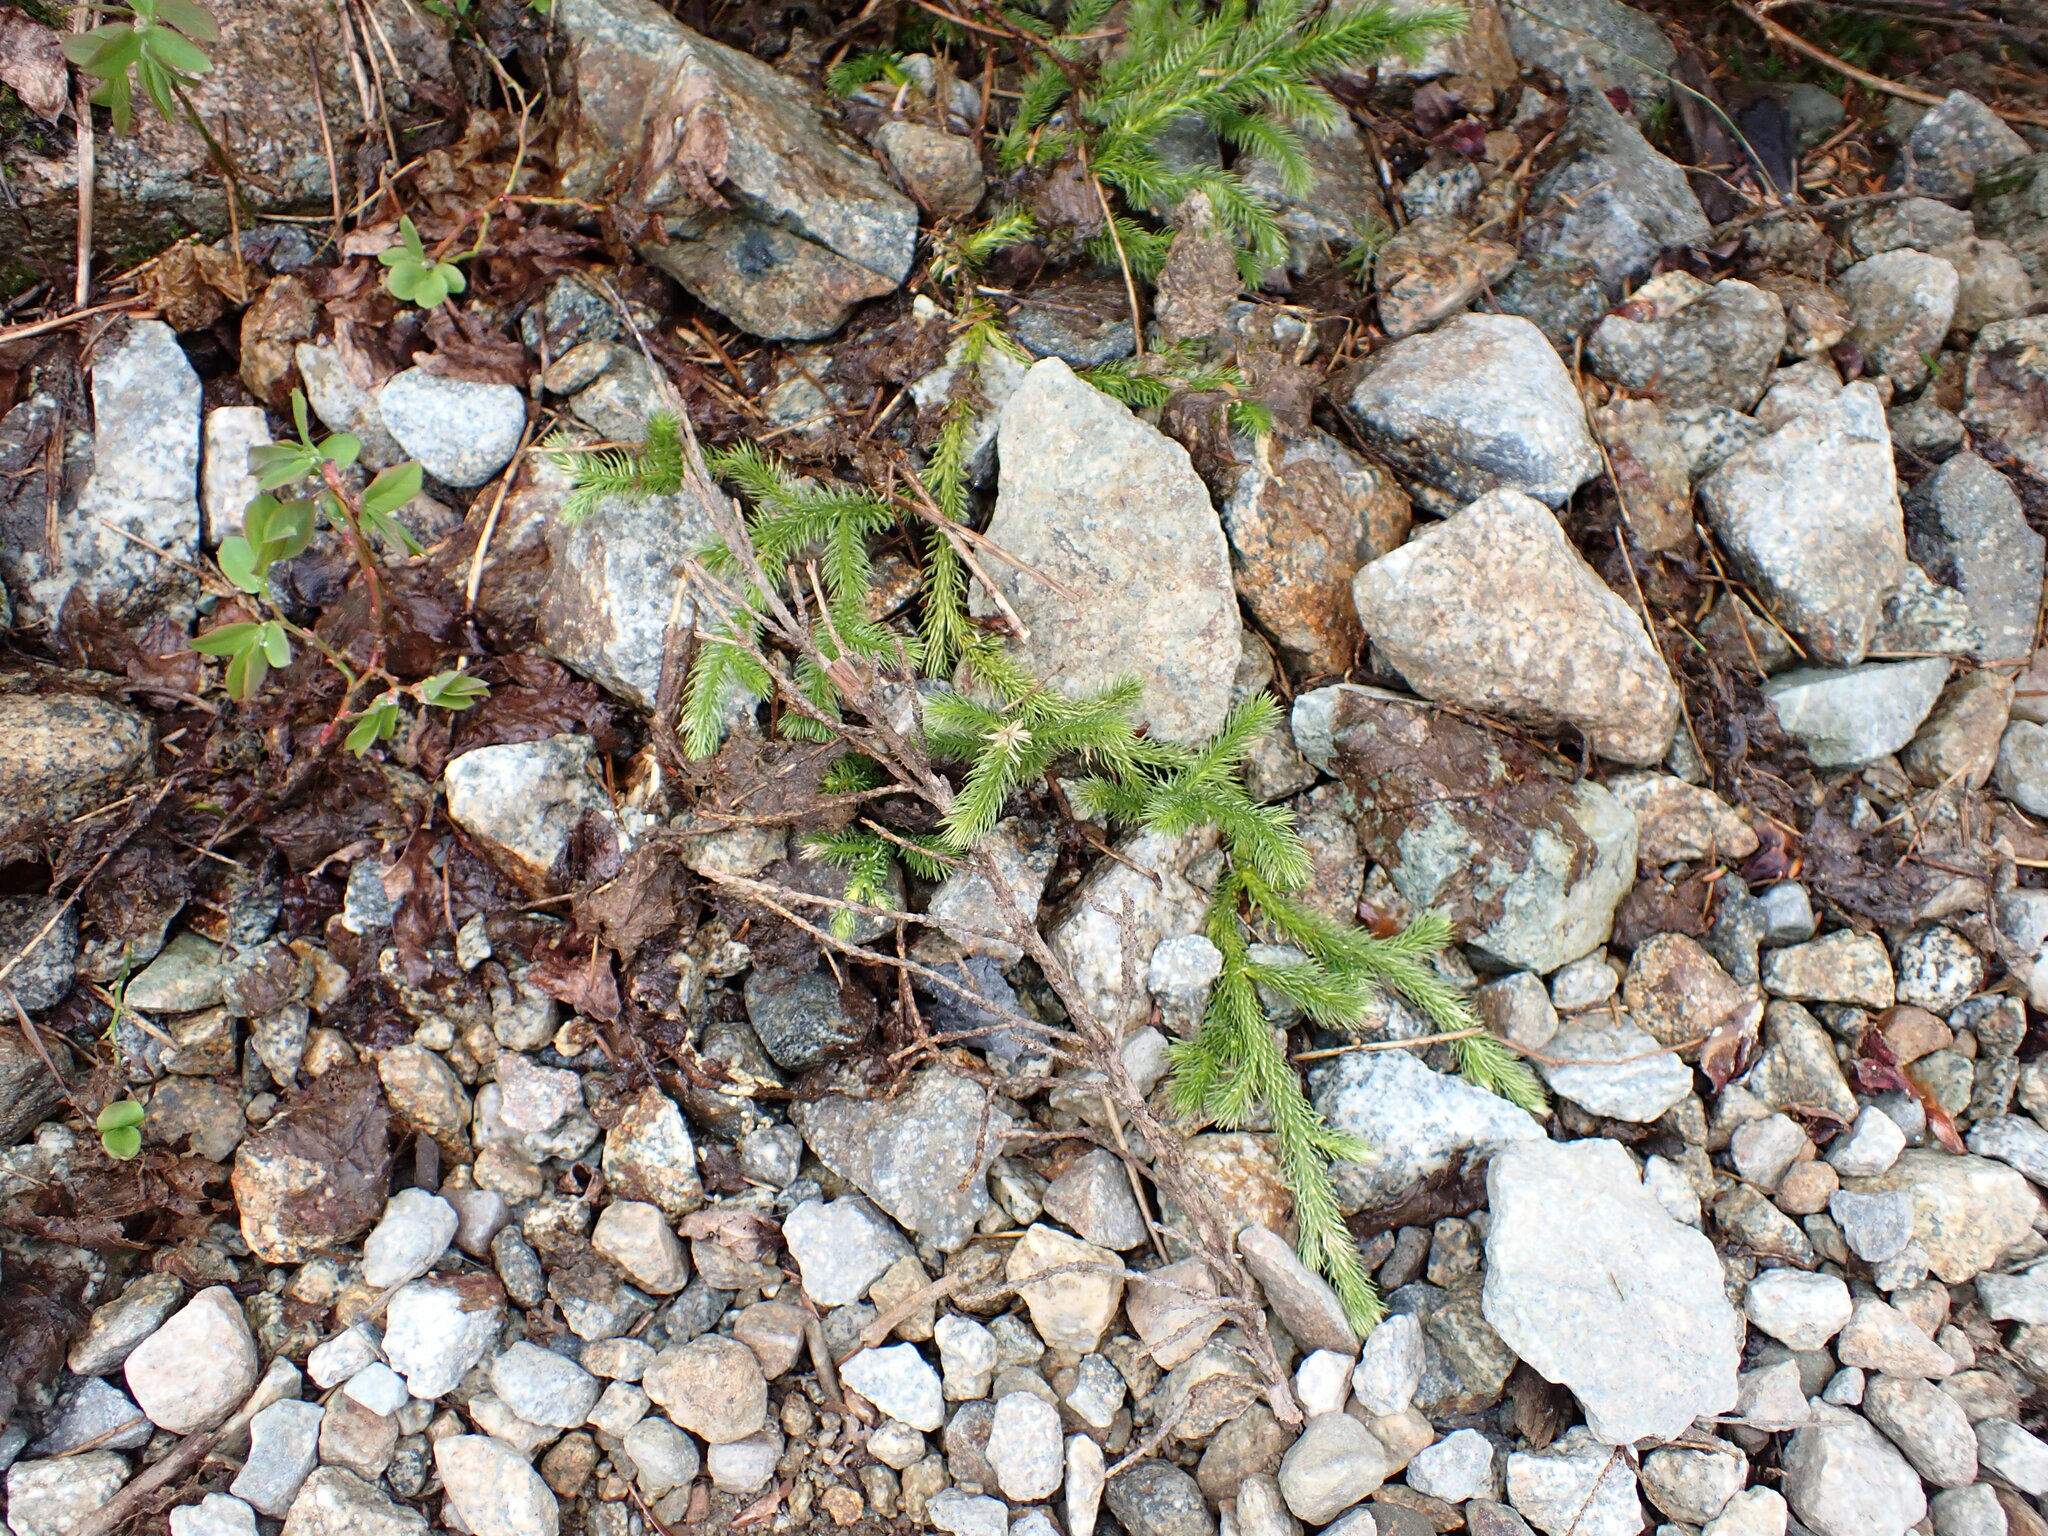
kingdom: Plantae
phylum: Tracheophyta
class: Lycopodiopsida
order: Lycopodiales
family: Lycopodiaceae
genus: Lycopodium
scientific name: Lycopodium clavatum
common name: Stag's-horn clubmoss
